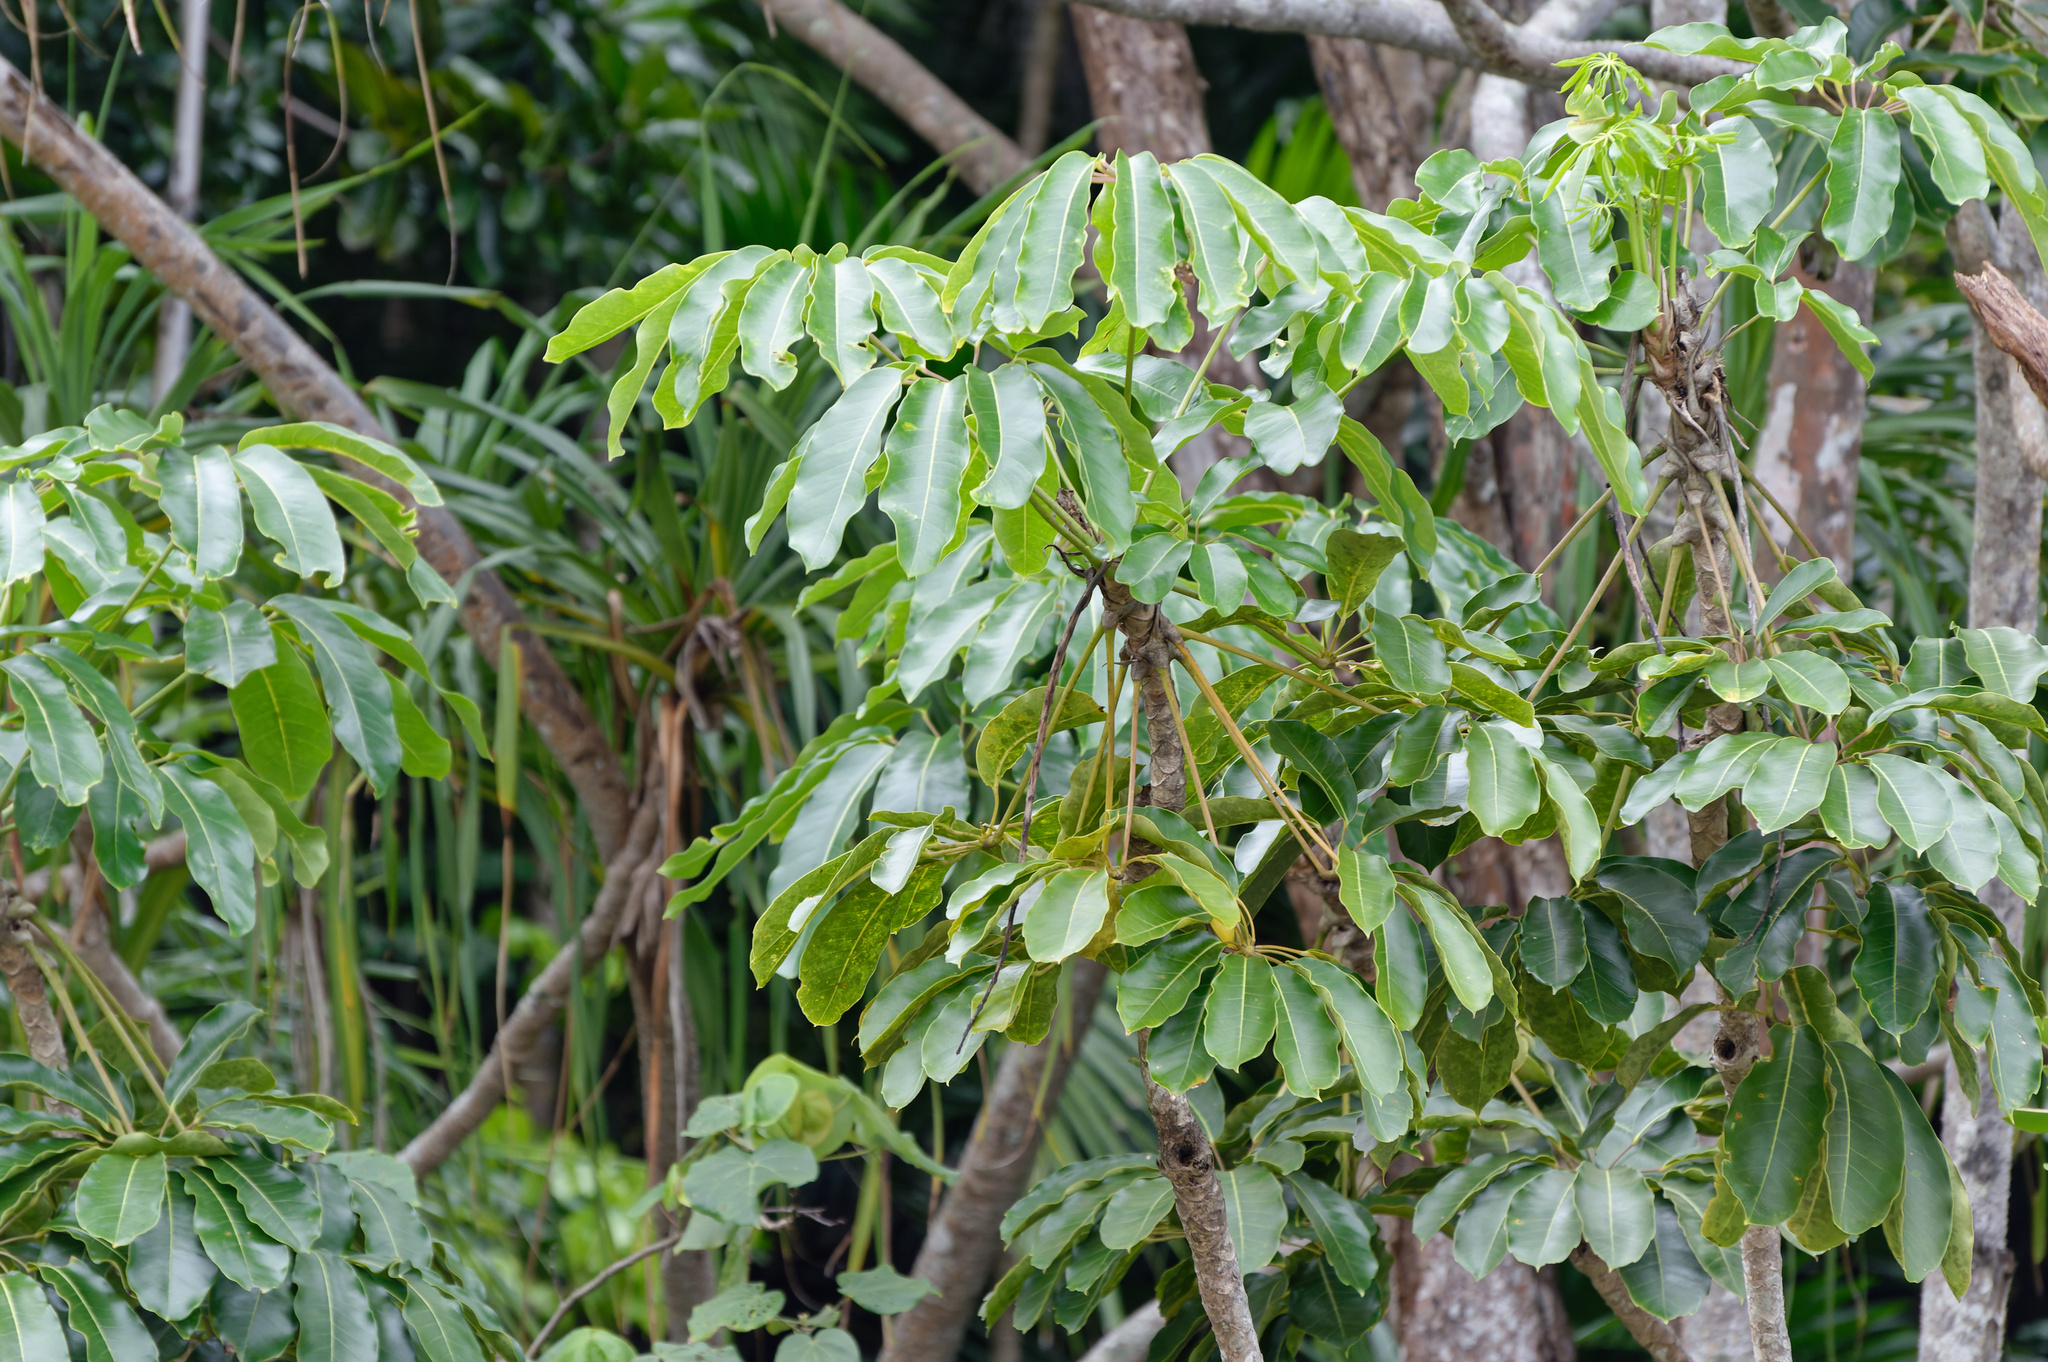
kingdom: Plantae
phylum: Tracheophyta
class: Magnoliopsida
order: Apiales
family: Araliaceae
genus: Heptapleurum
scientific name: Heptapleurum actinophyllum
